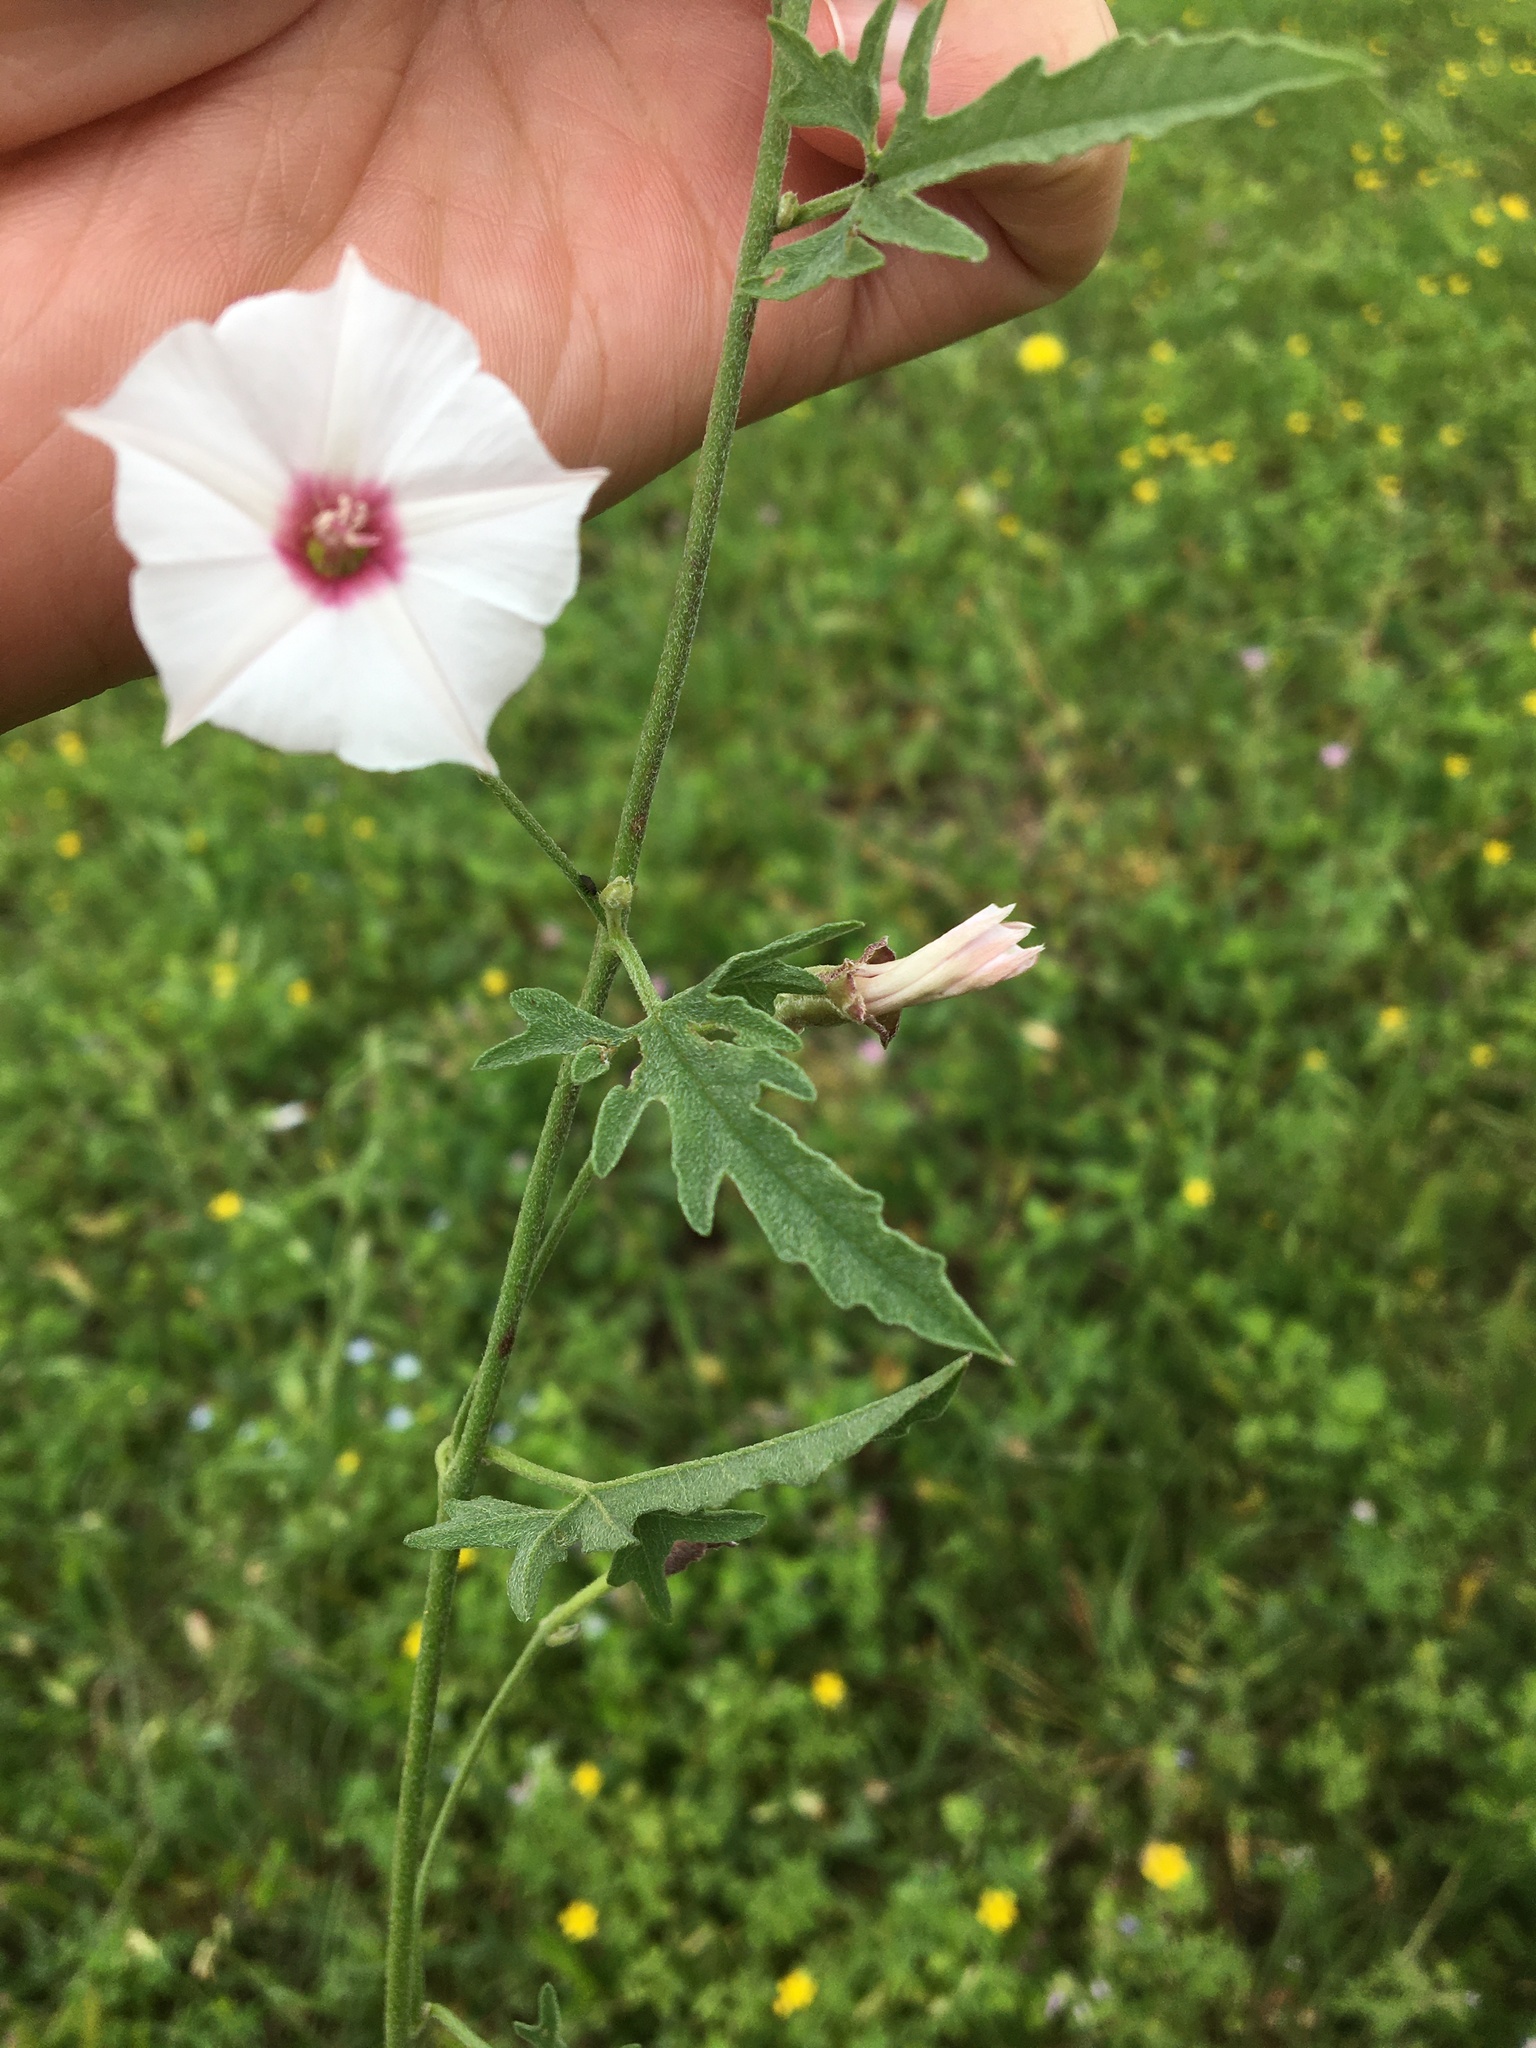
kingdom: Plantae
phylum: Tracheophyta
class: Magnoliopsida
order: Solanales
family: Convolvulaceae
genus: Convolvulus
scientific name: Convolvulus equitans
